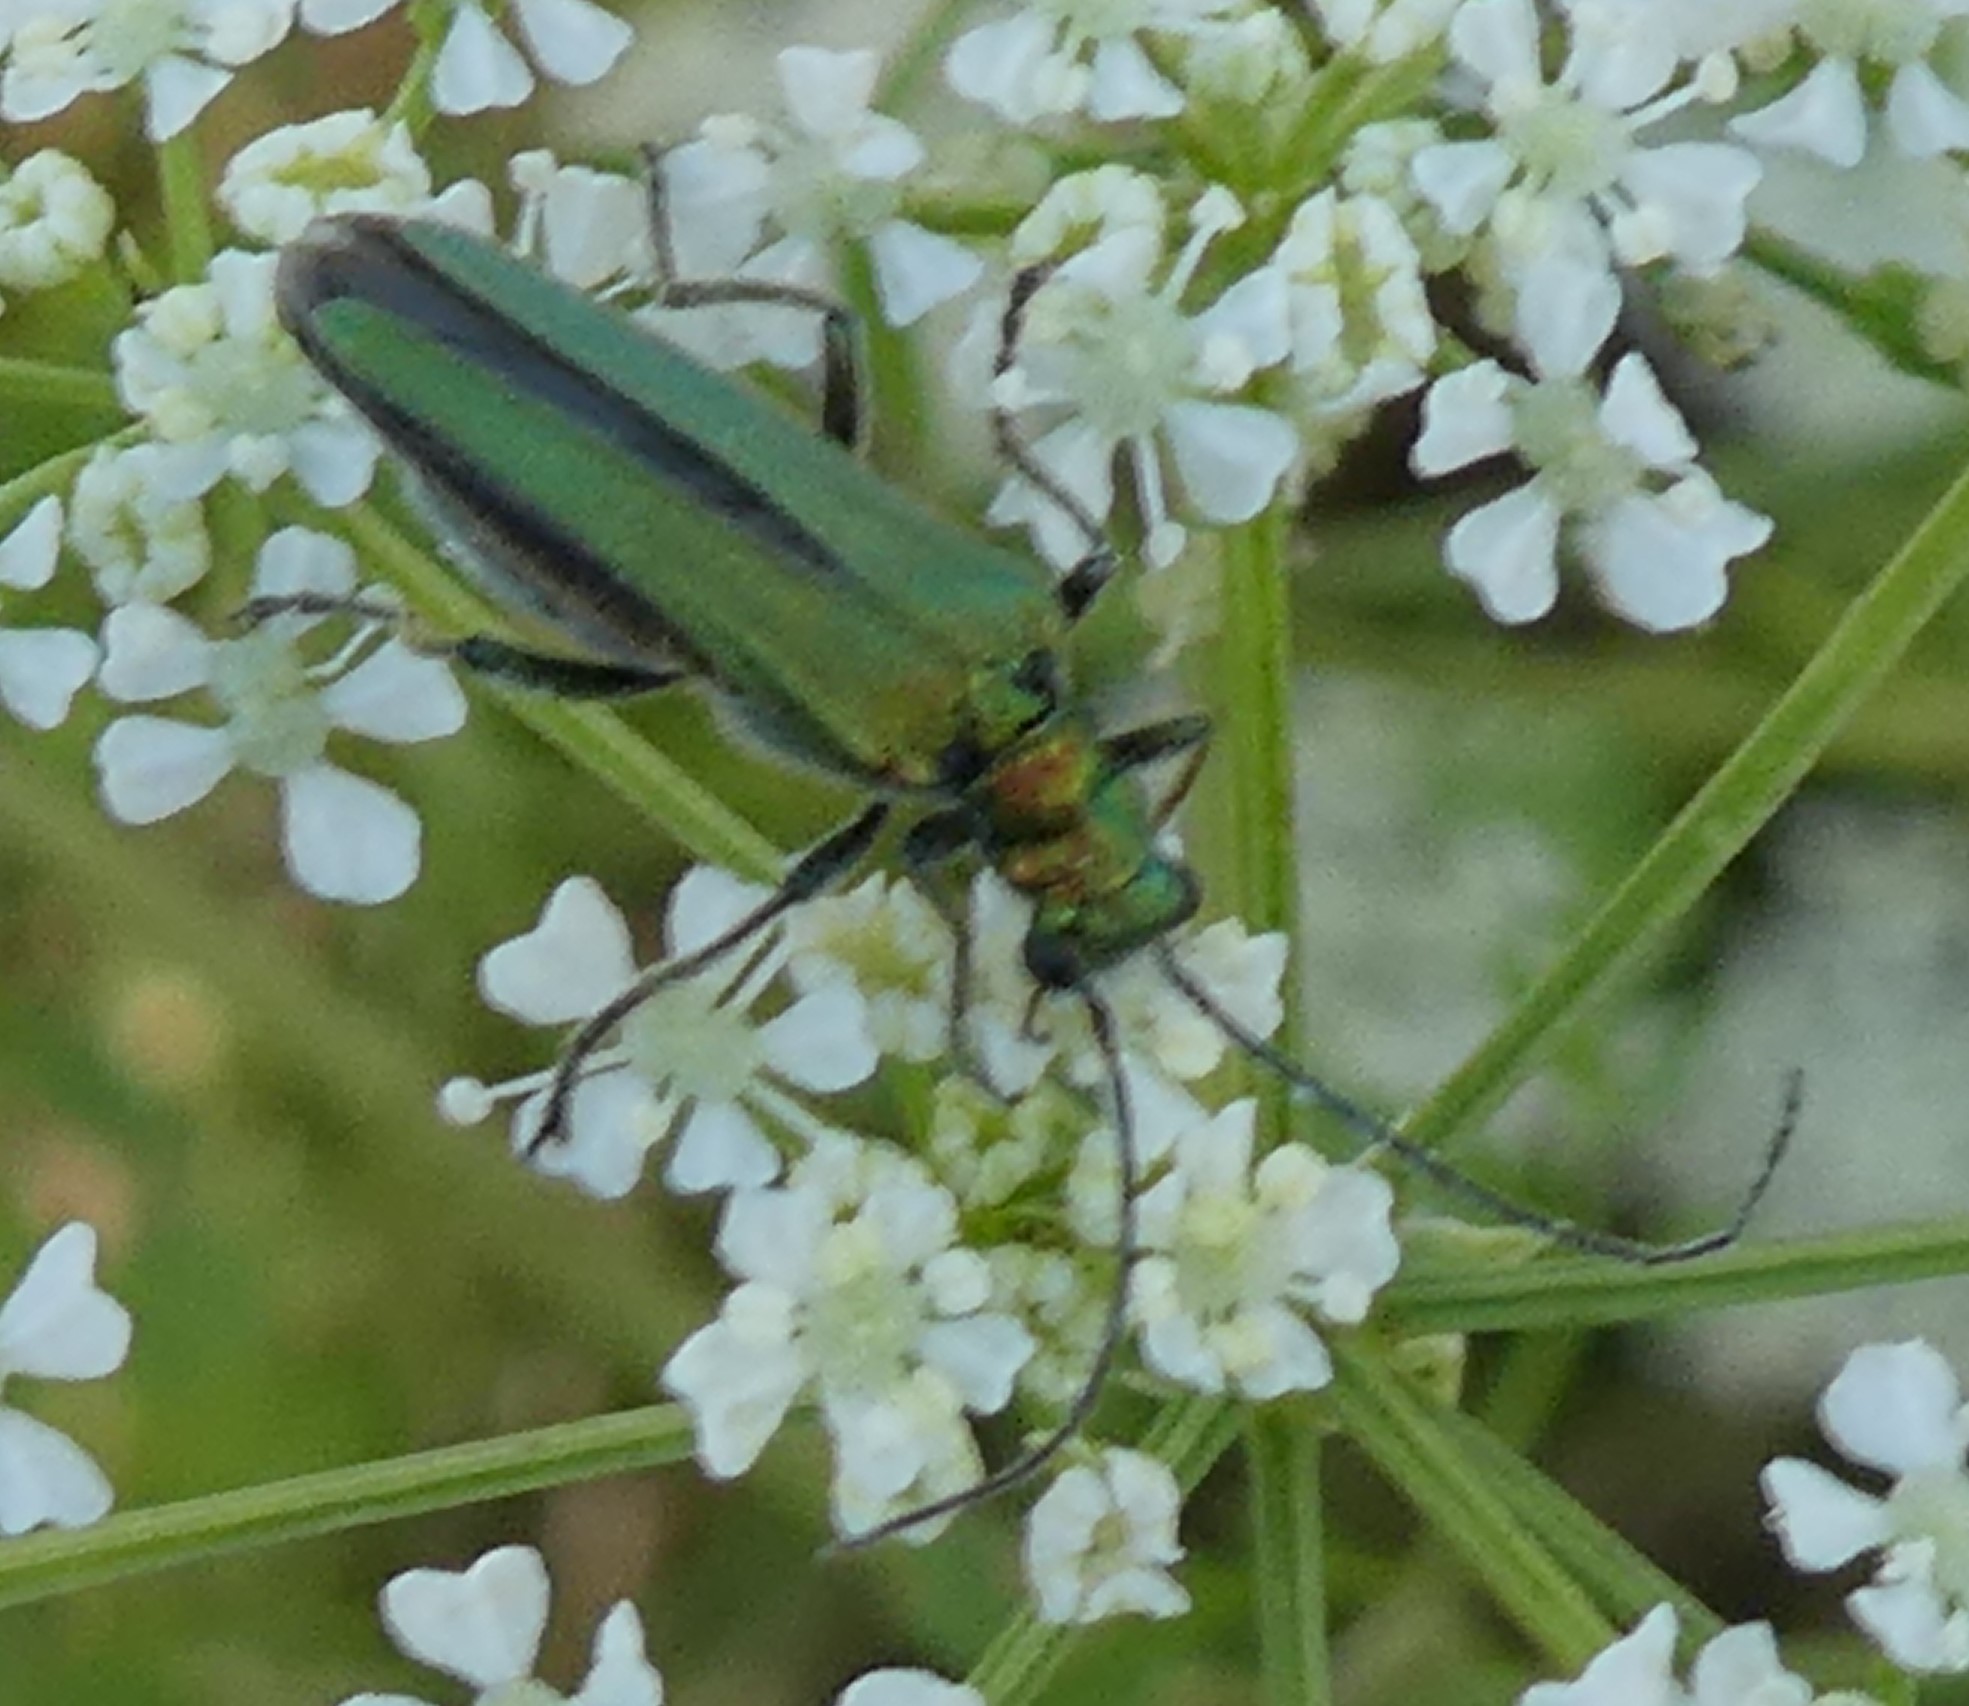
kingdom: Animalia
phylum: Arthropoda
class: Insecta
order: Coleoptera
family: Oedemeridae
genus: Oedemera
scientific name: Oedemera nobilis
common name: Swollen-thighed beetle
